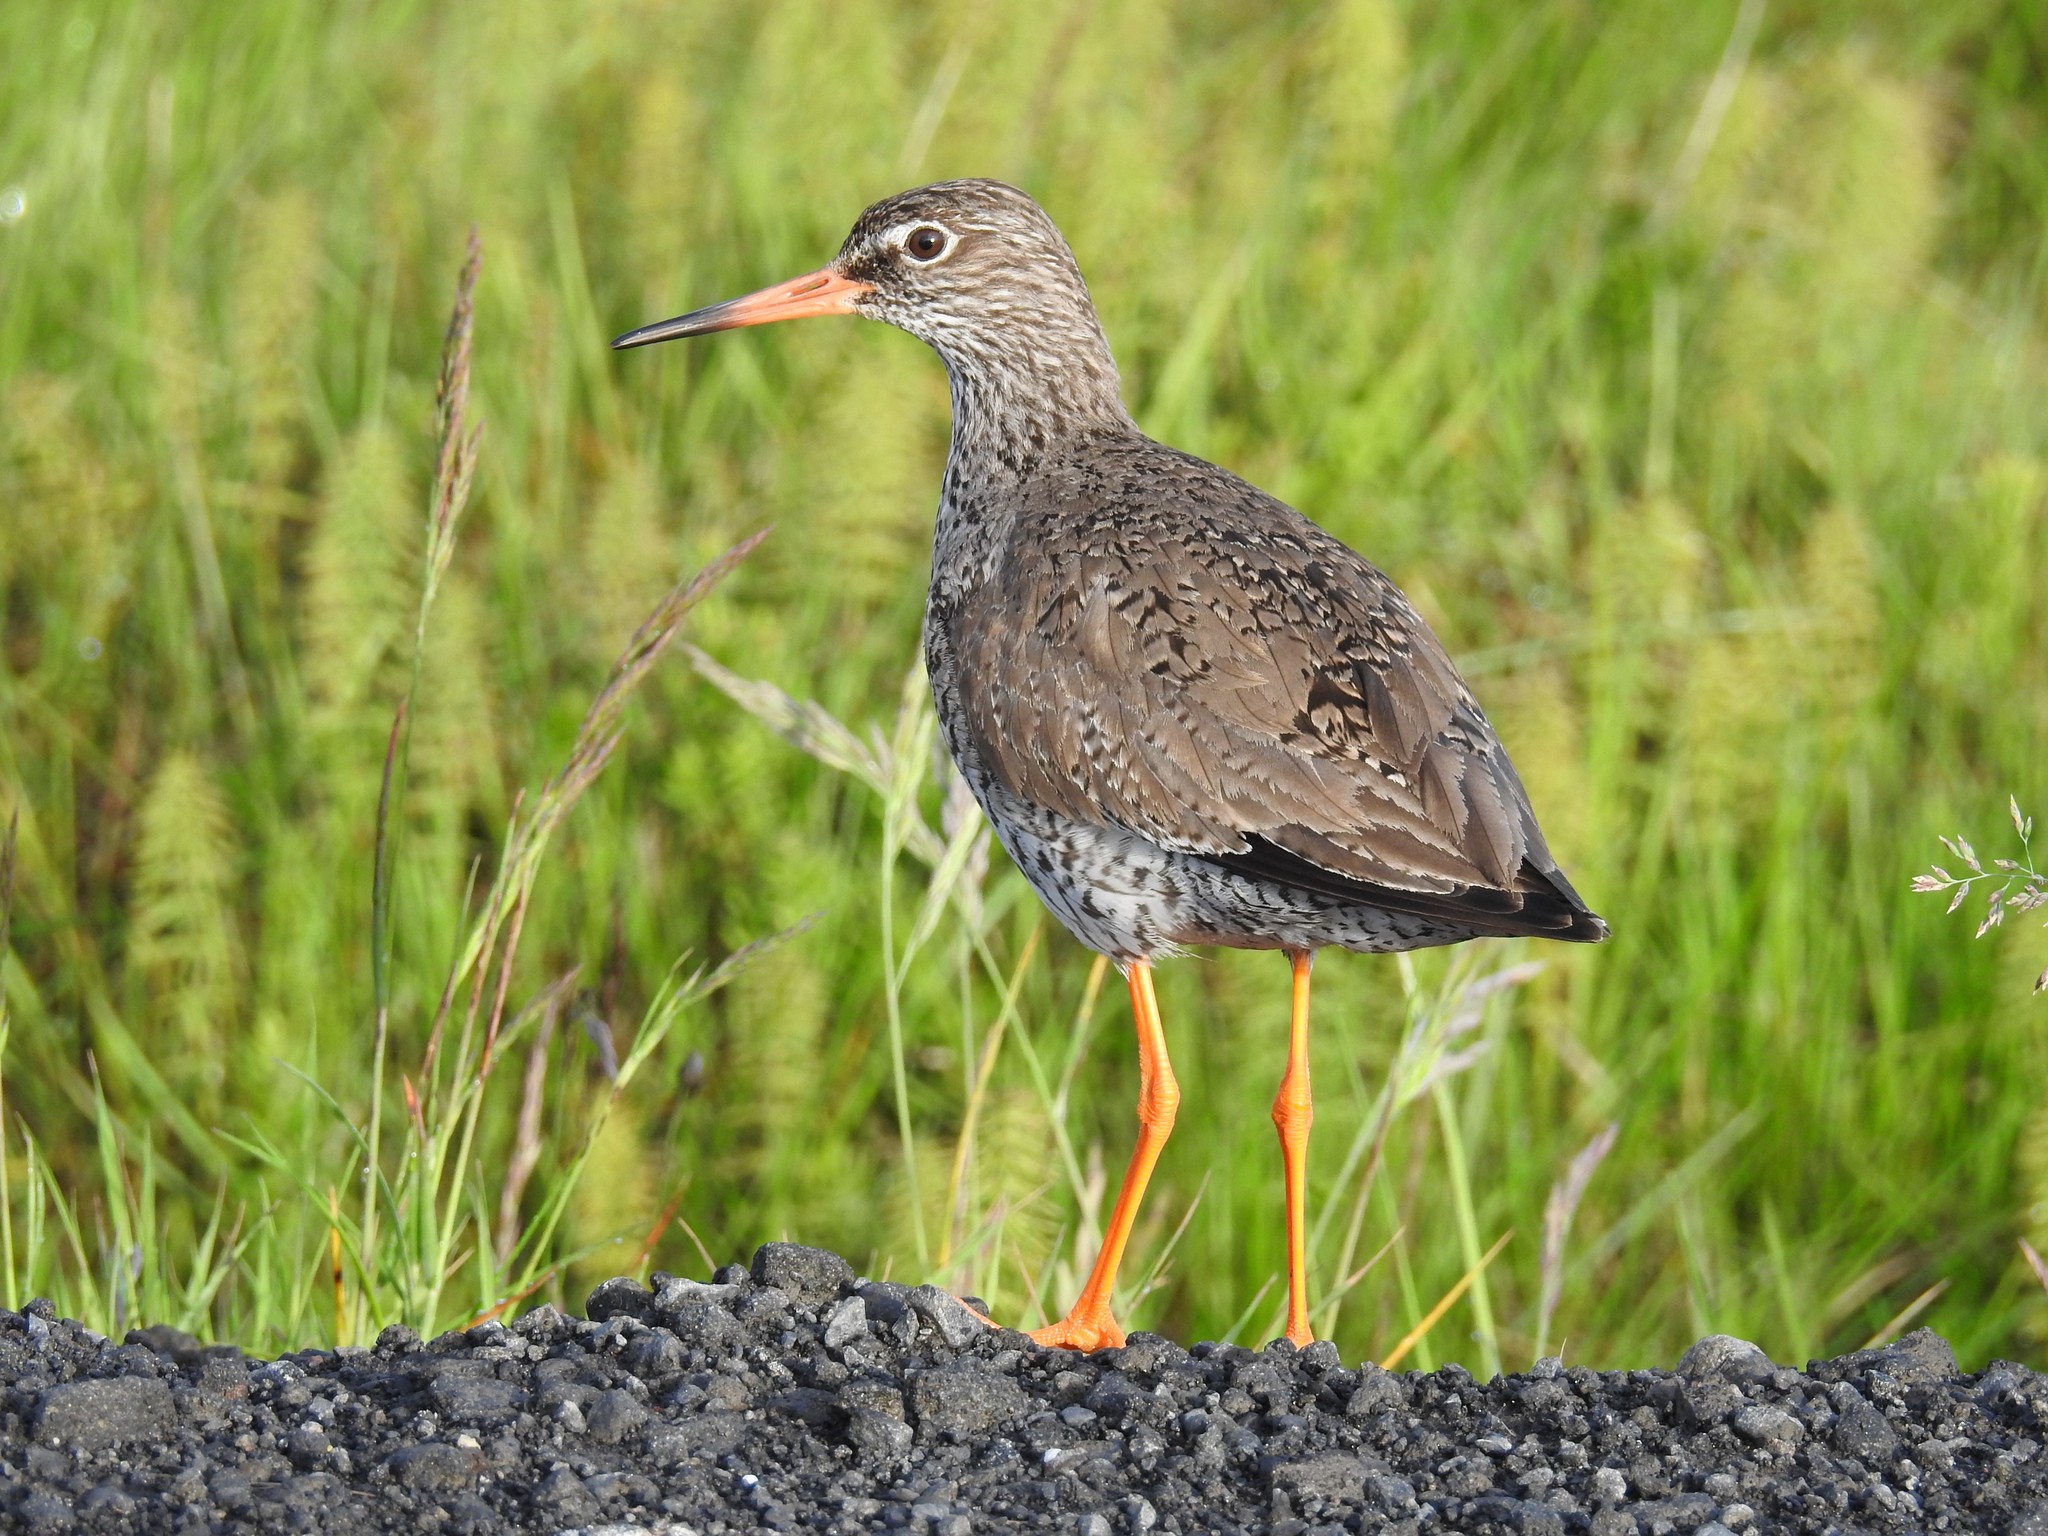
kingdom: Animalia
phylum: Chordata
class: Aves
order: Charadriiformes
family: Scolopacidae
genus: Tringa
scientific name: Tringa totanus
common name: Common redshank
